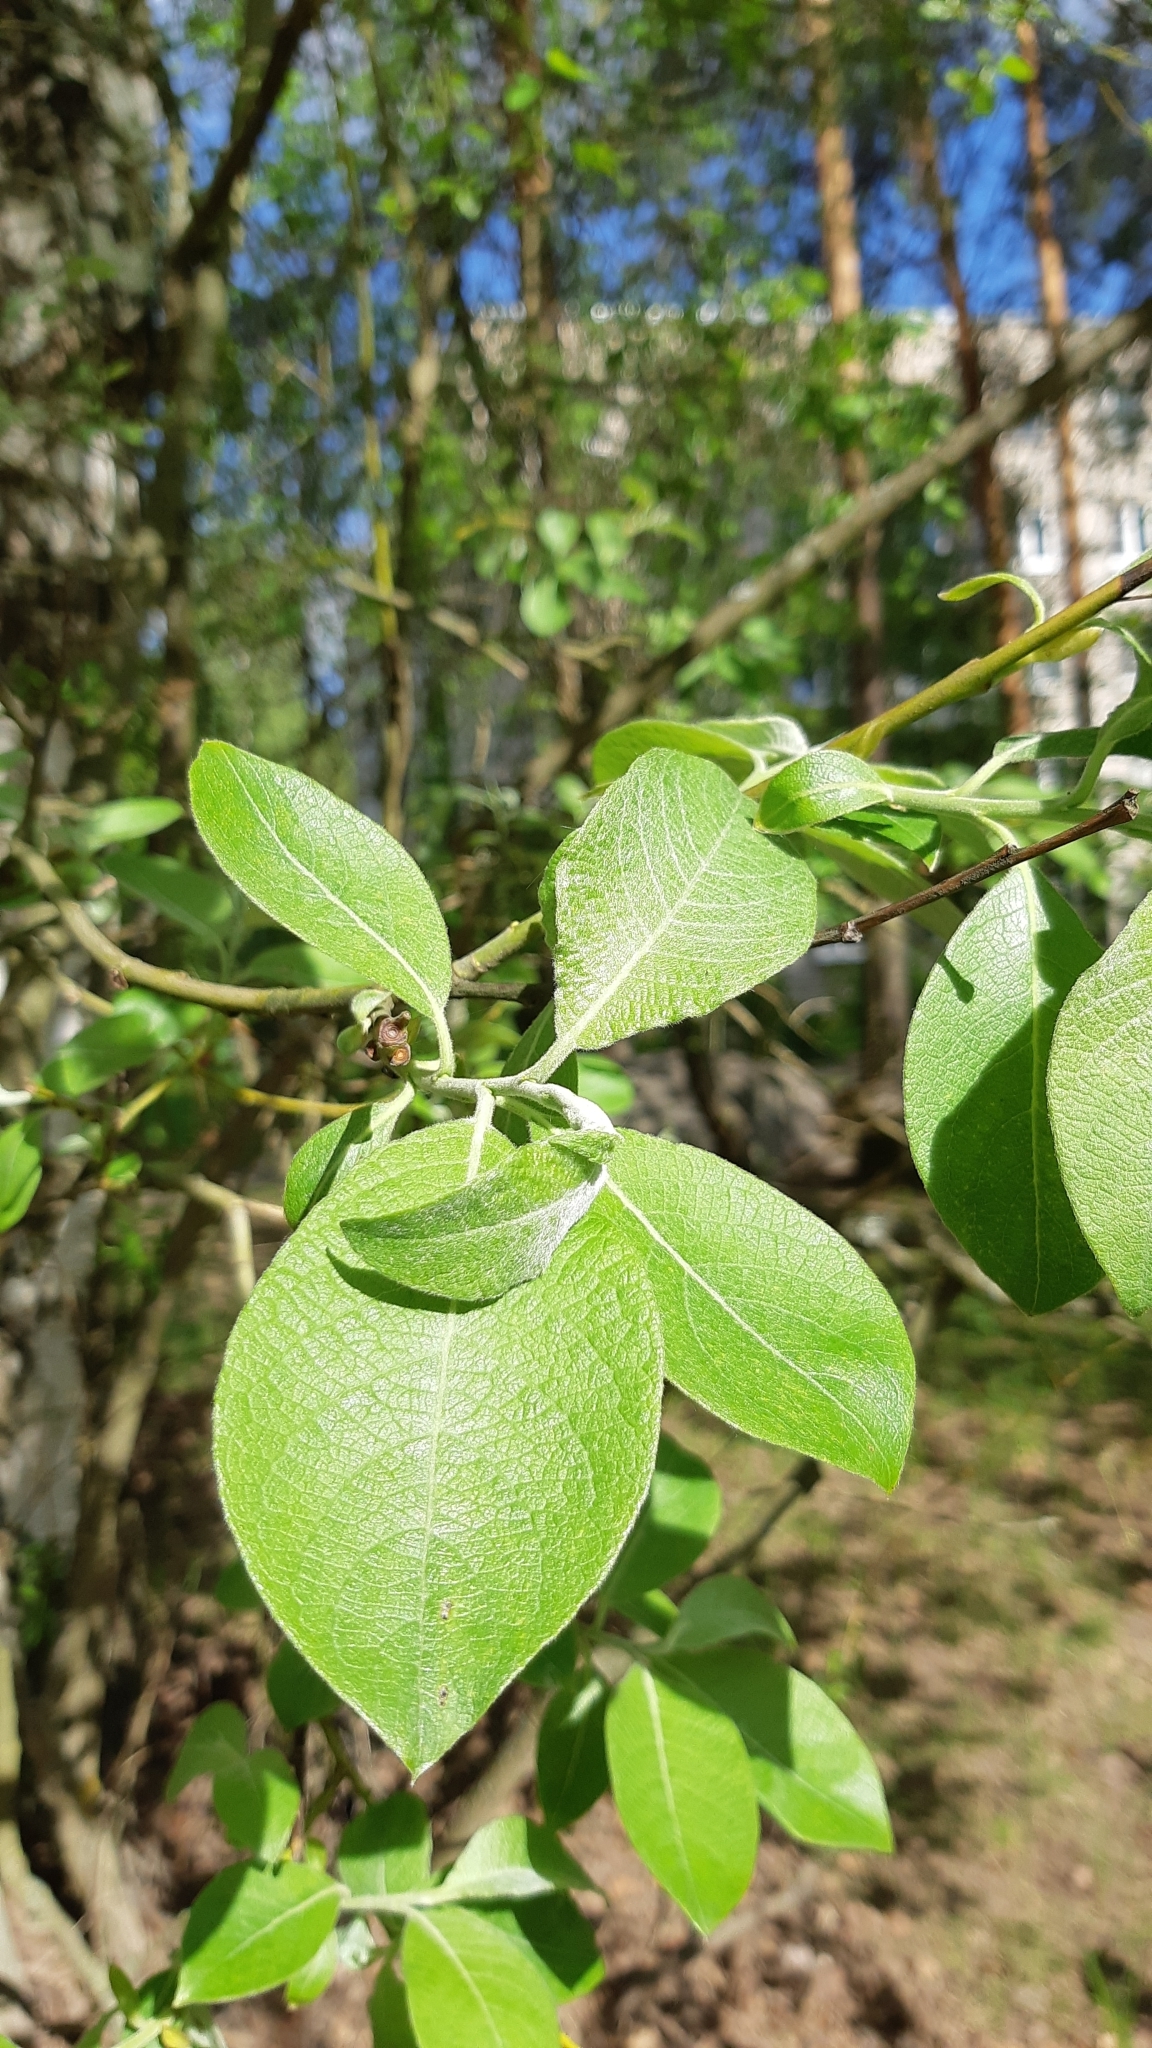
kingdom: Plantae
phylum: Tracheophyta
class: Magnoliopsida
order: Malpighiales
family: Salicaceae
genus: Salix
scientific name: Salix caprea
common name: Goat willow
